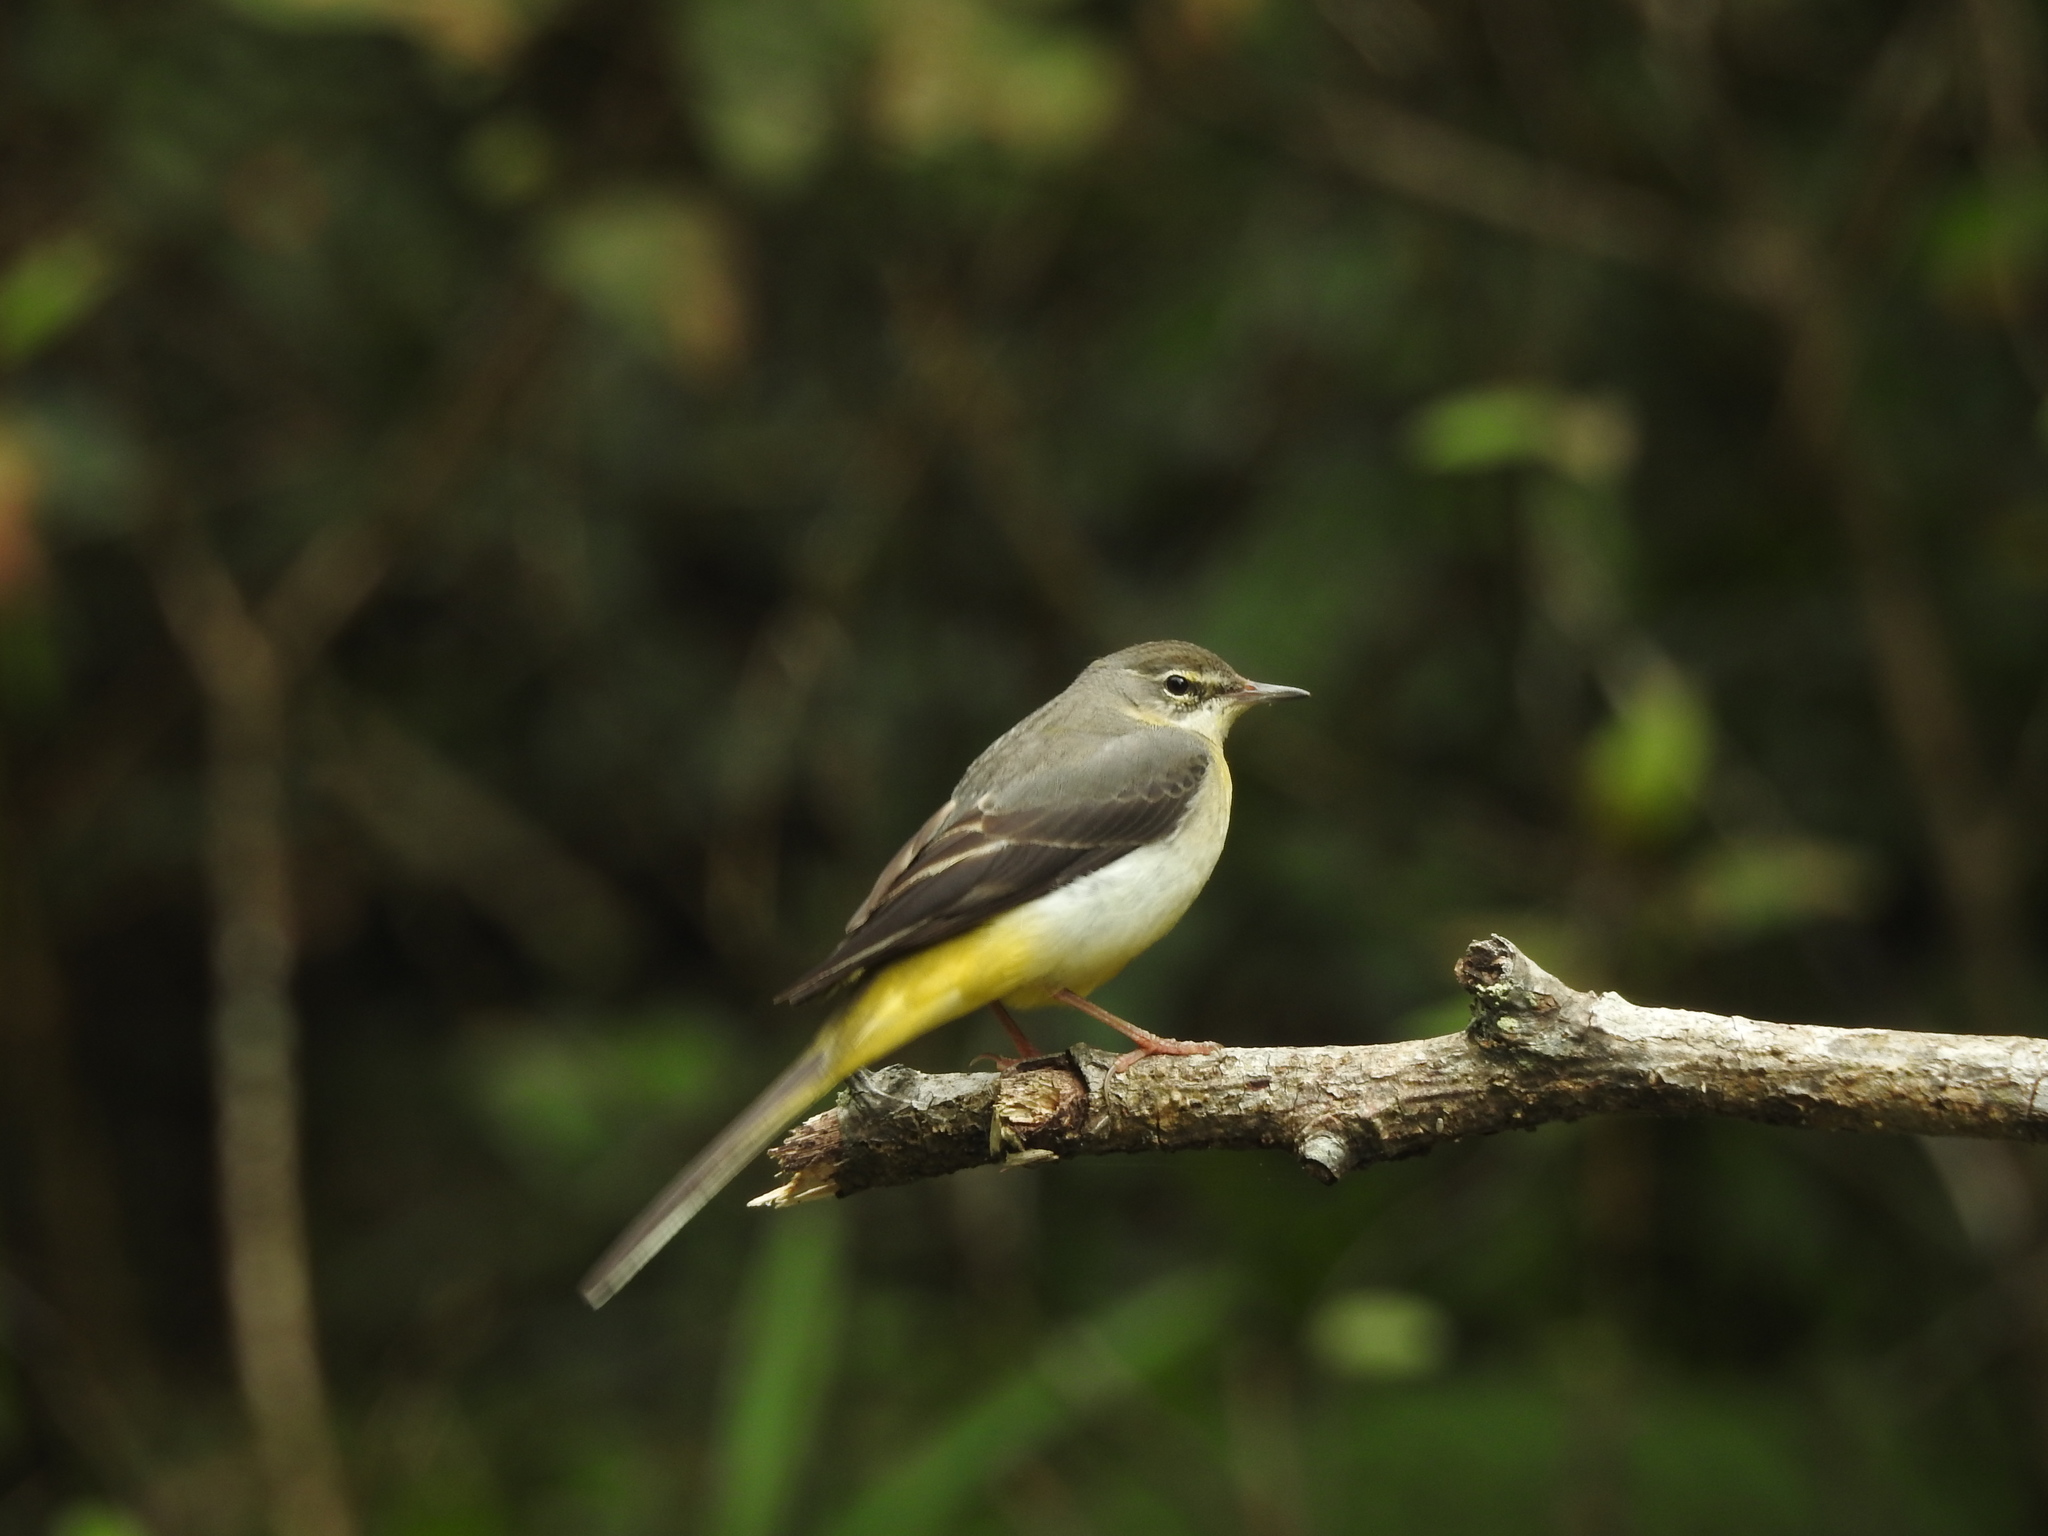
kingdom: Animalia
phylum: Chordata
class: Aves
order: Passeriformes
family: Motacillidae
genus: Motacilla
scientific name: Motacilla cinerea
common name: Grey wagtail
